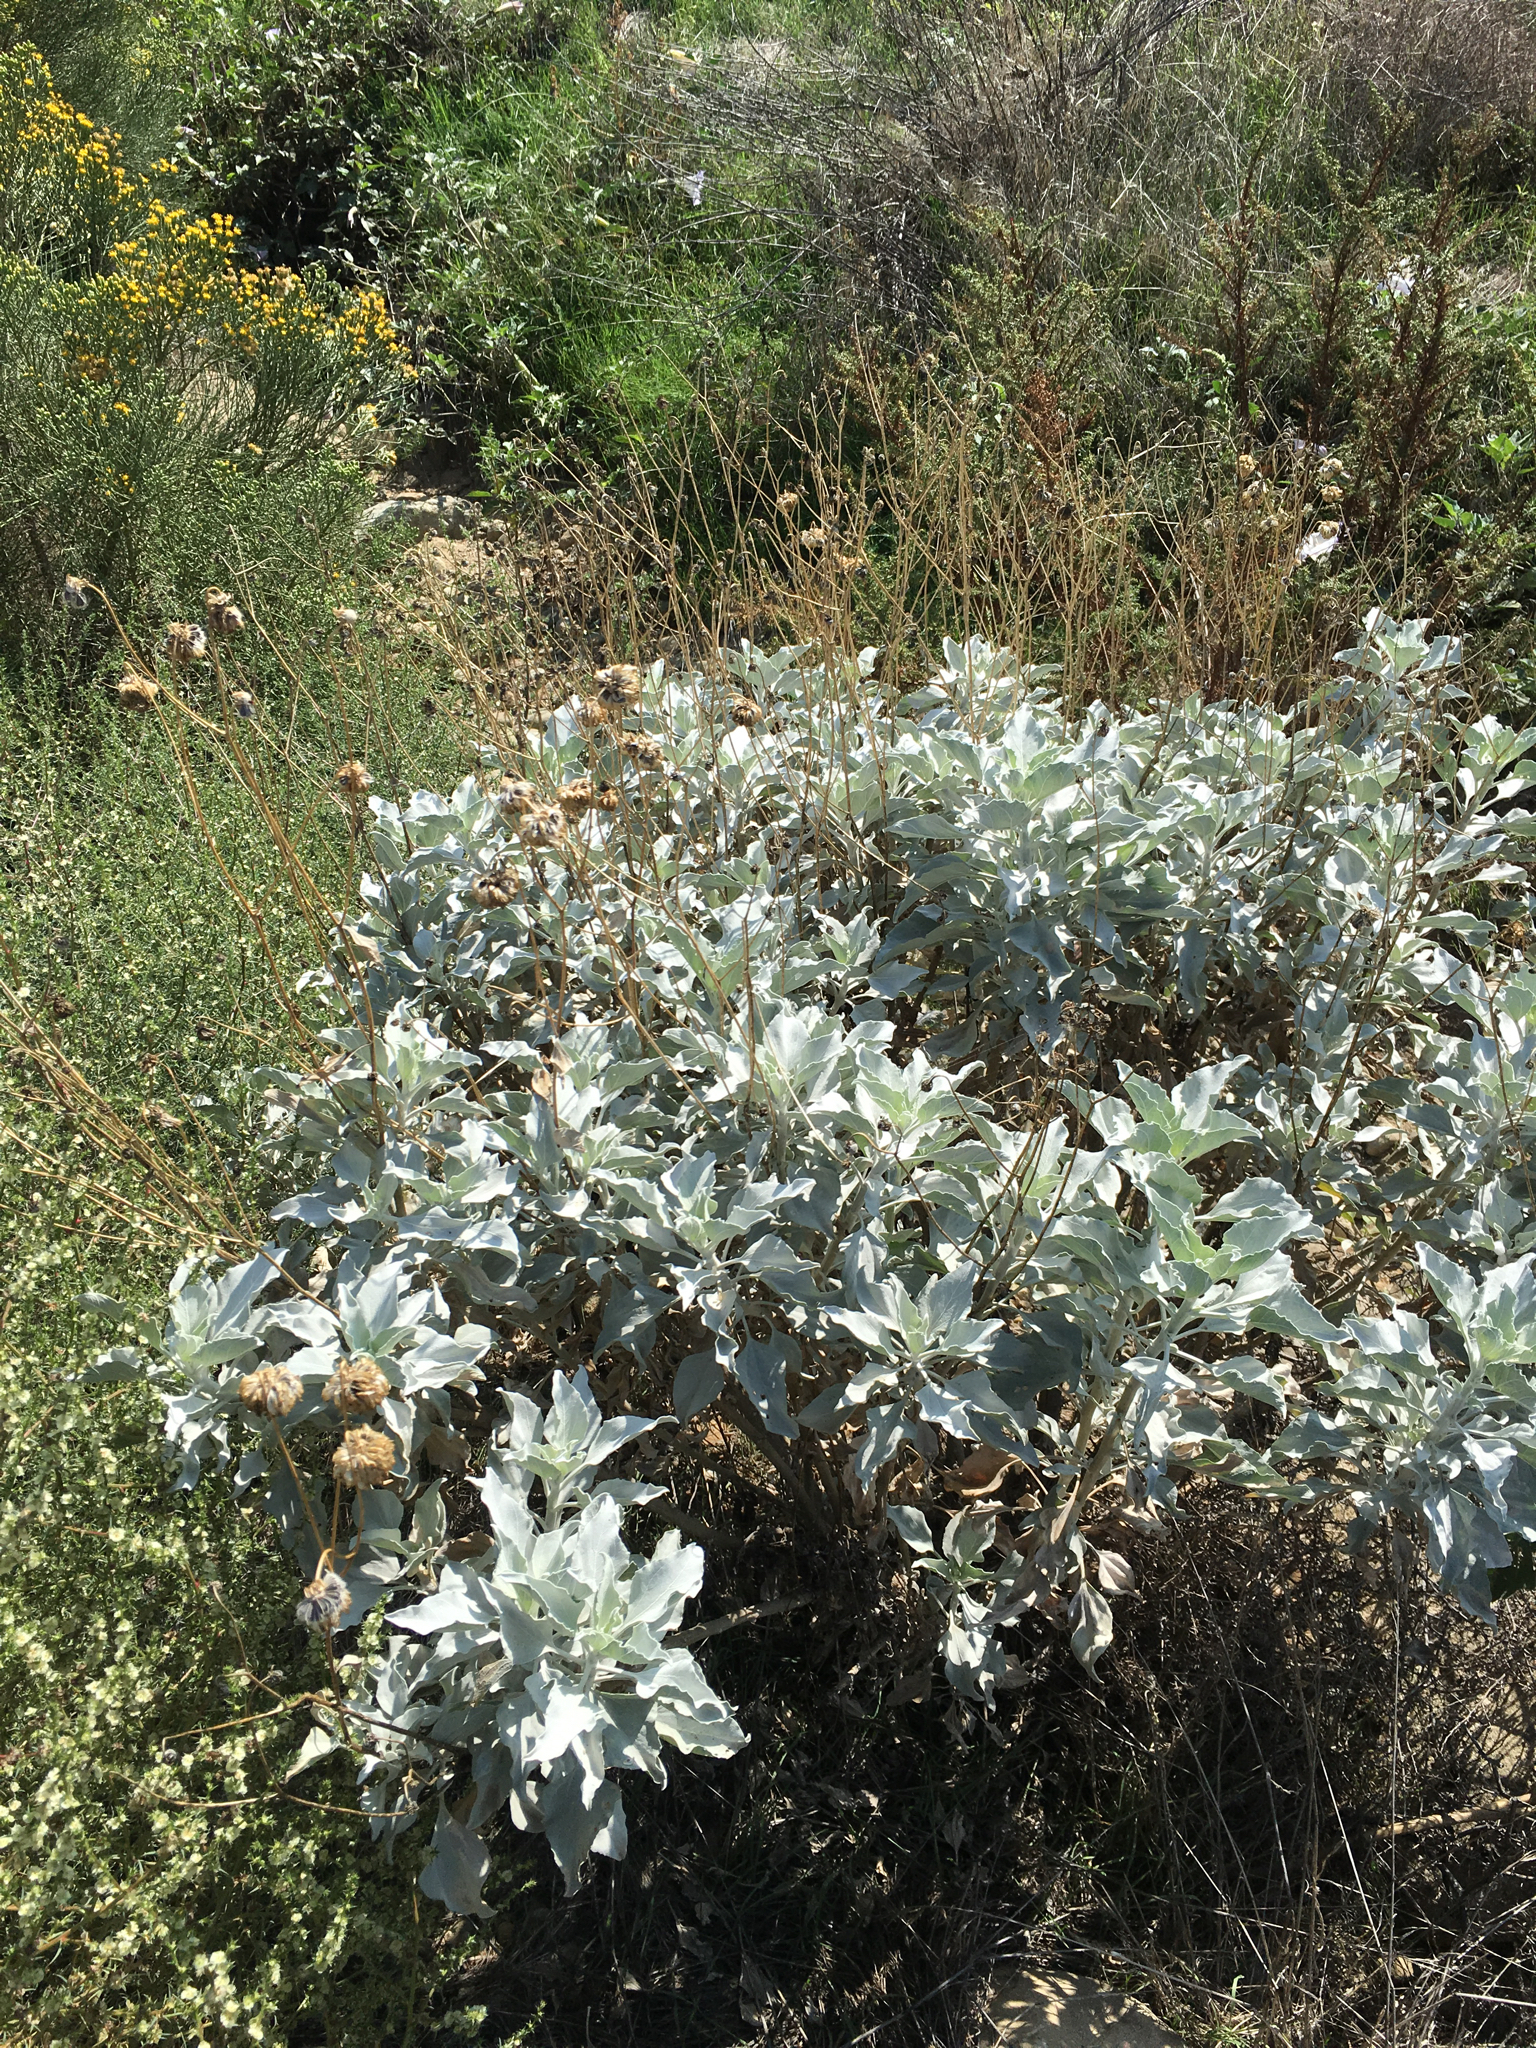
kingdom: Plantae
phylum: Tracheophyta
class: Magnoliopsida
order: Asterales
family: Asteraceae
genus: Encelia
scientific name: Encelia farinosa
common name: Brittlebush
